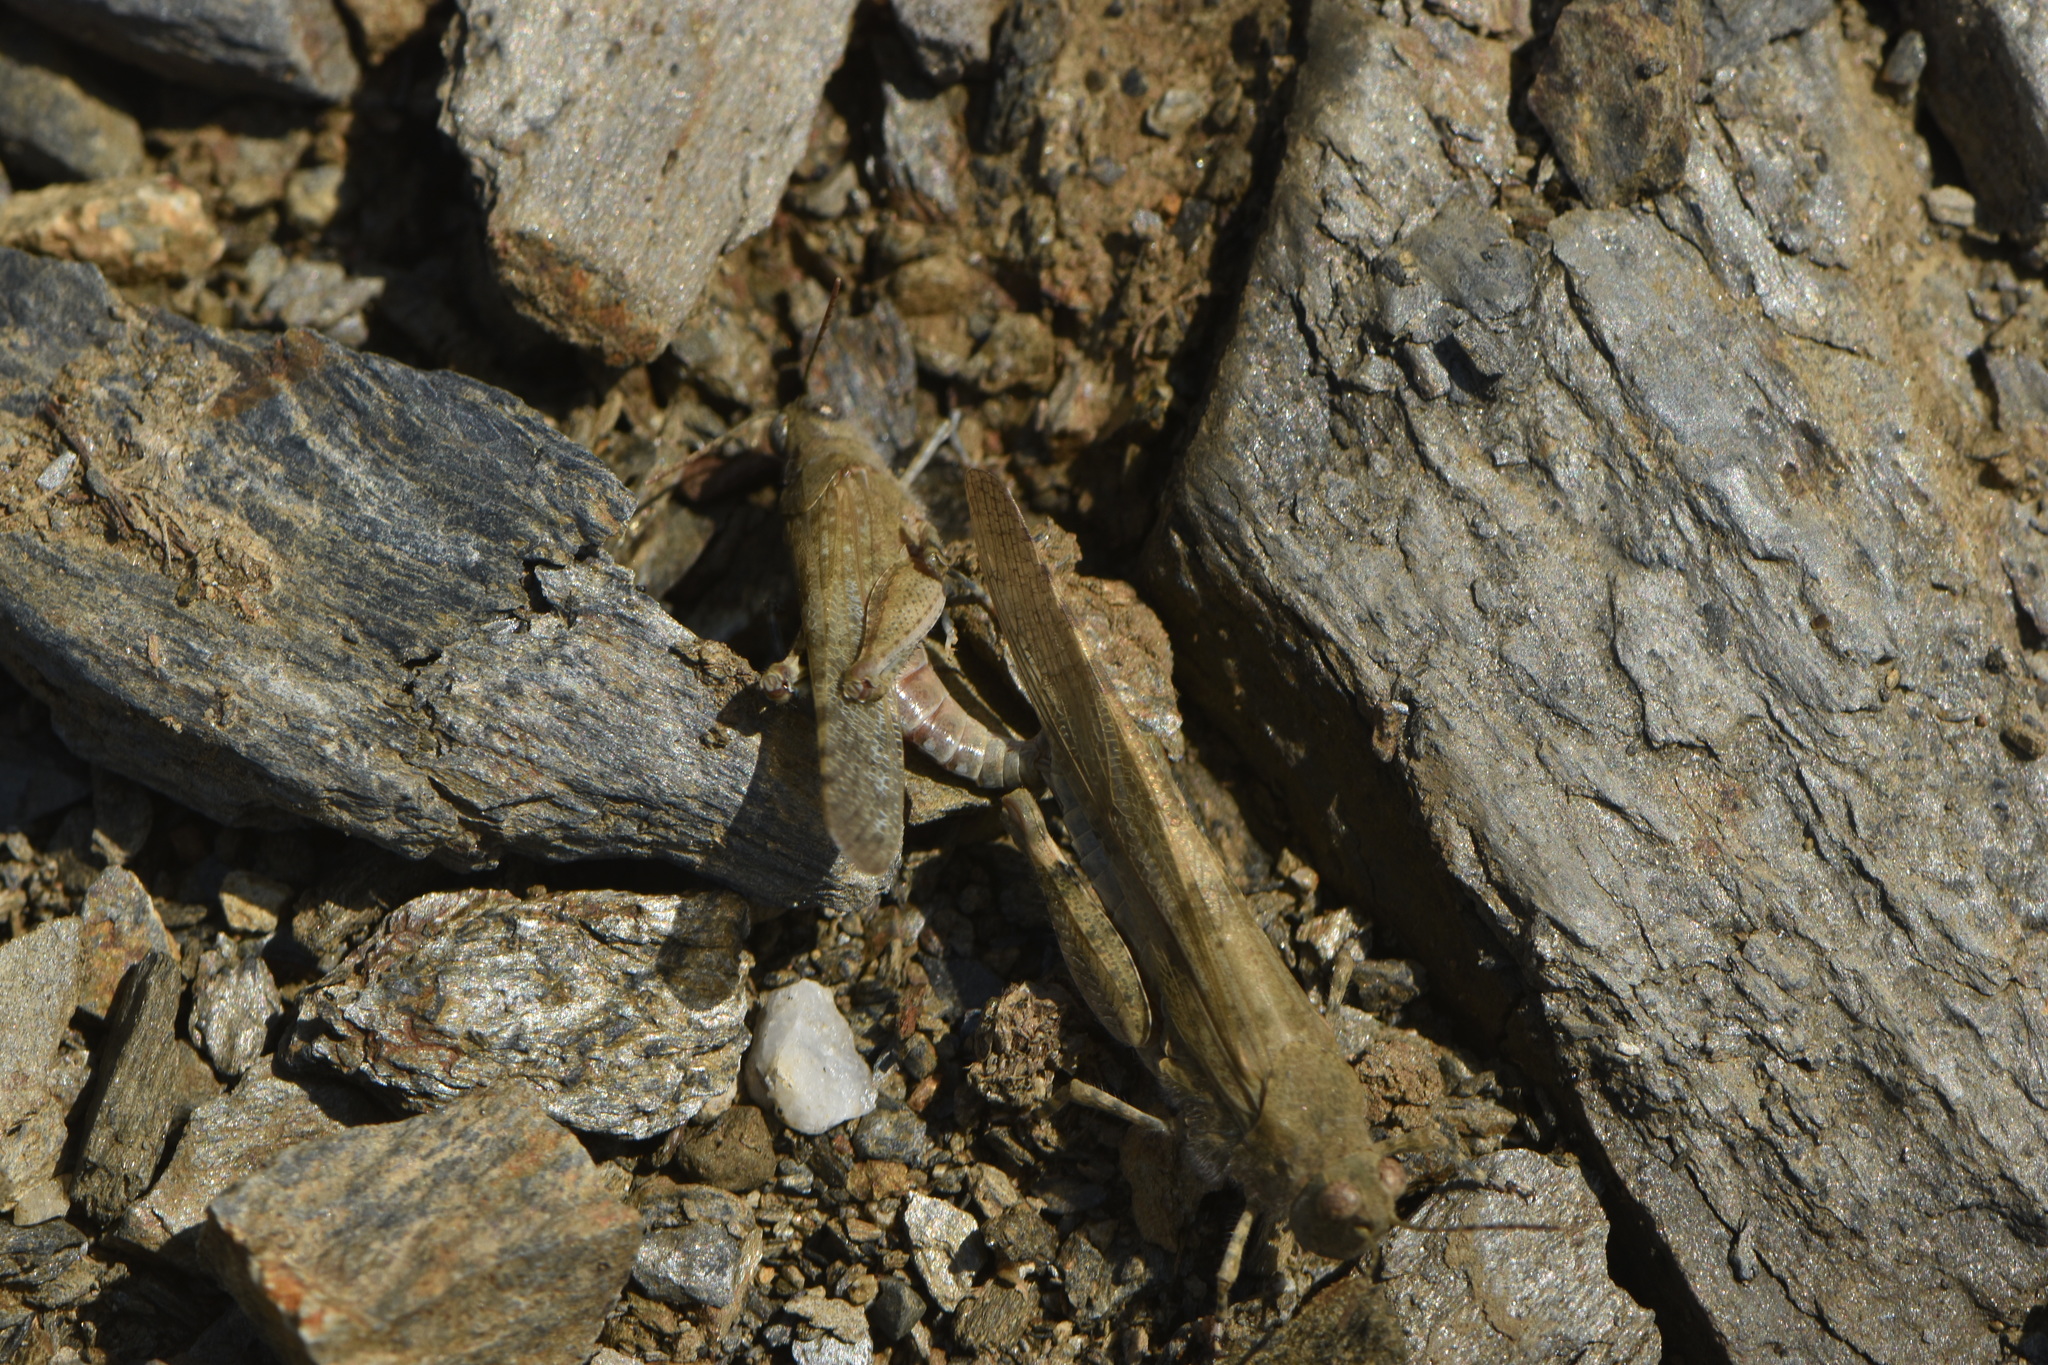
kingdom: Animalia
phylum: Arthropoda
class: Insecta
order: Orthoptera
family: Acrididae
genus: Sphingonotus
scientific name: Sphingonotus rubescens
